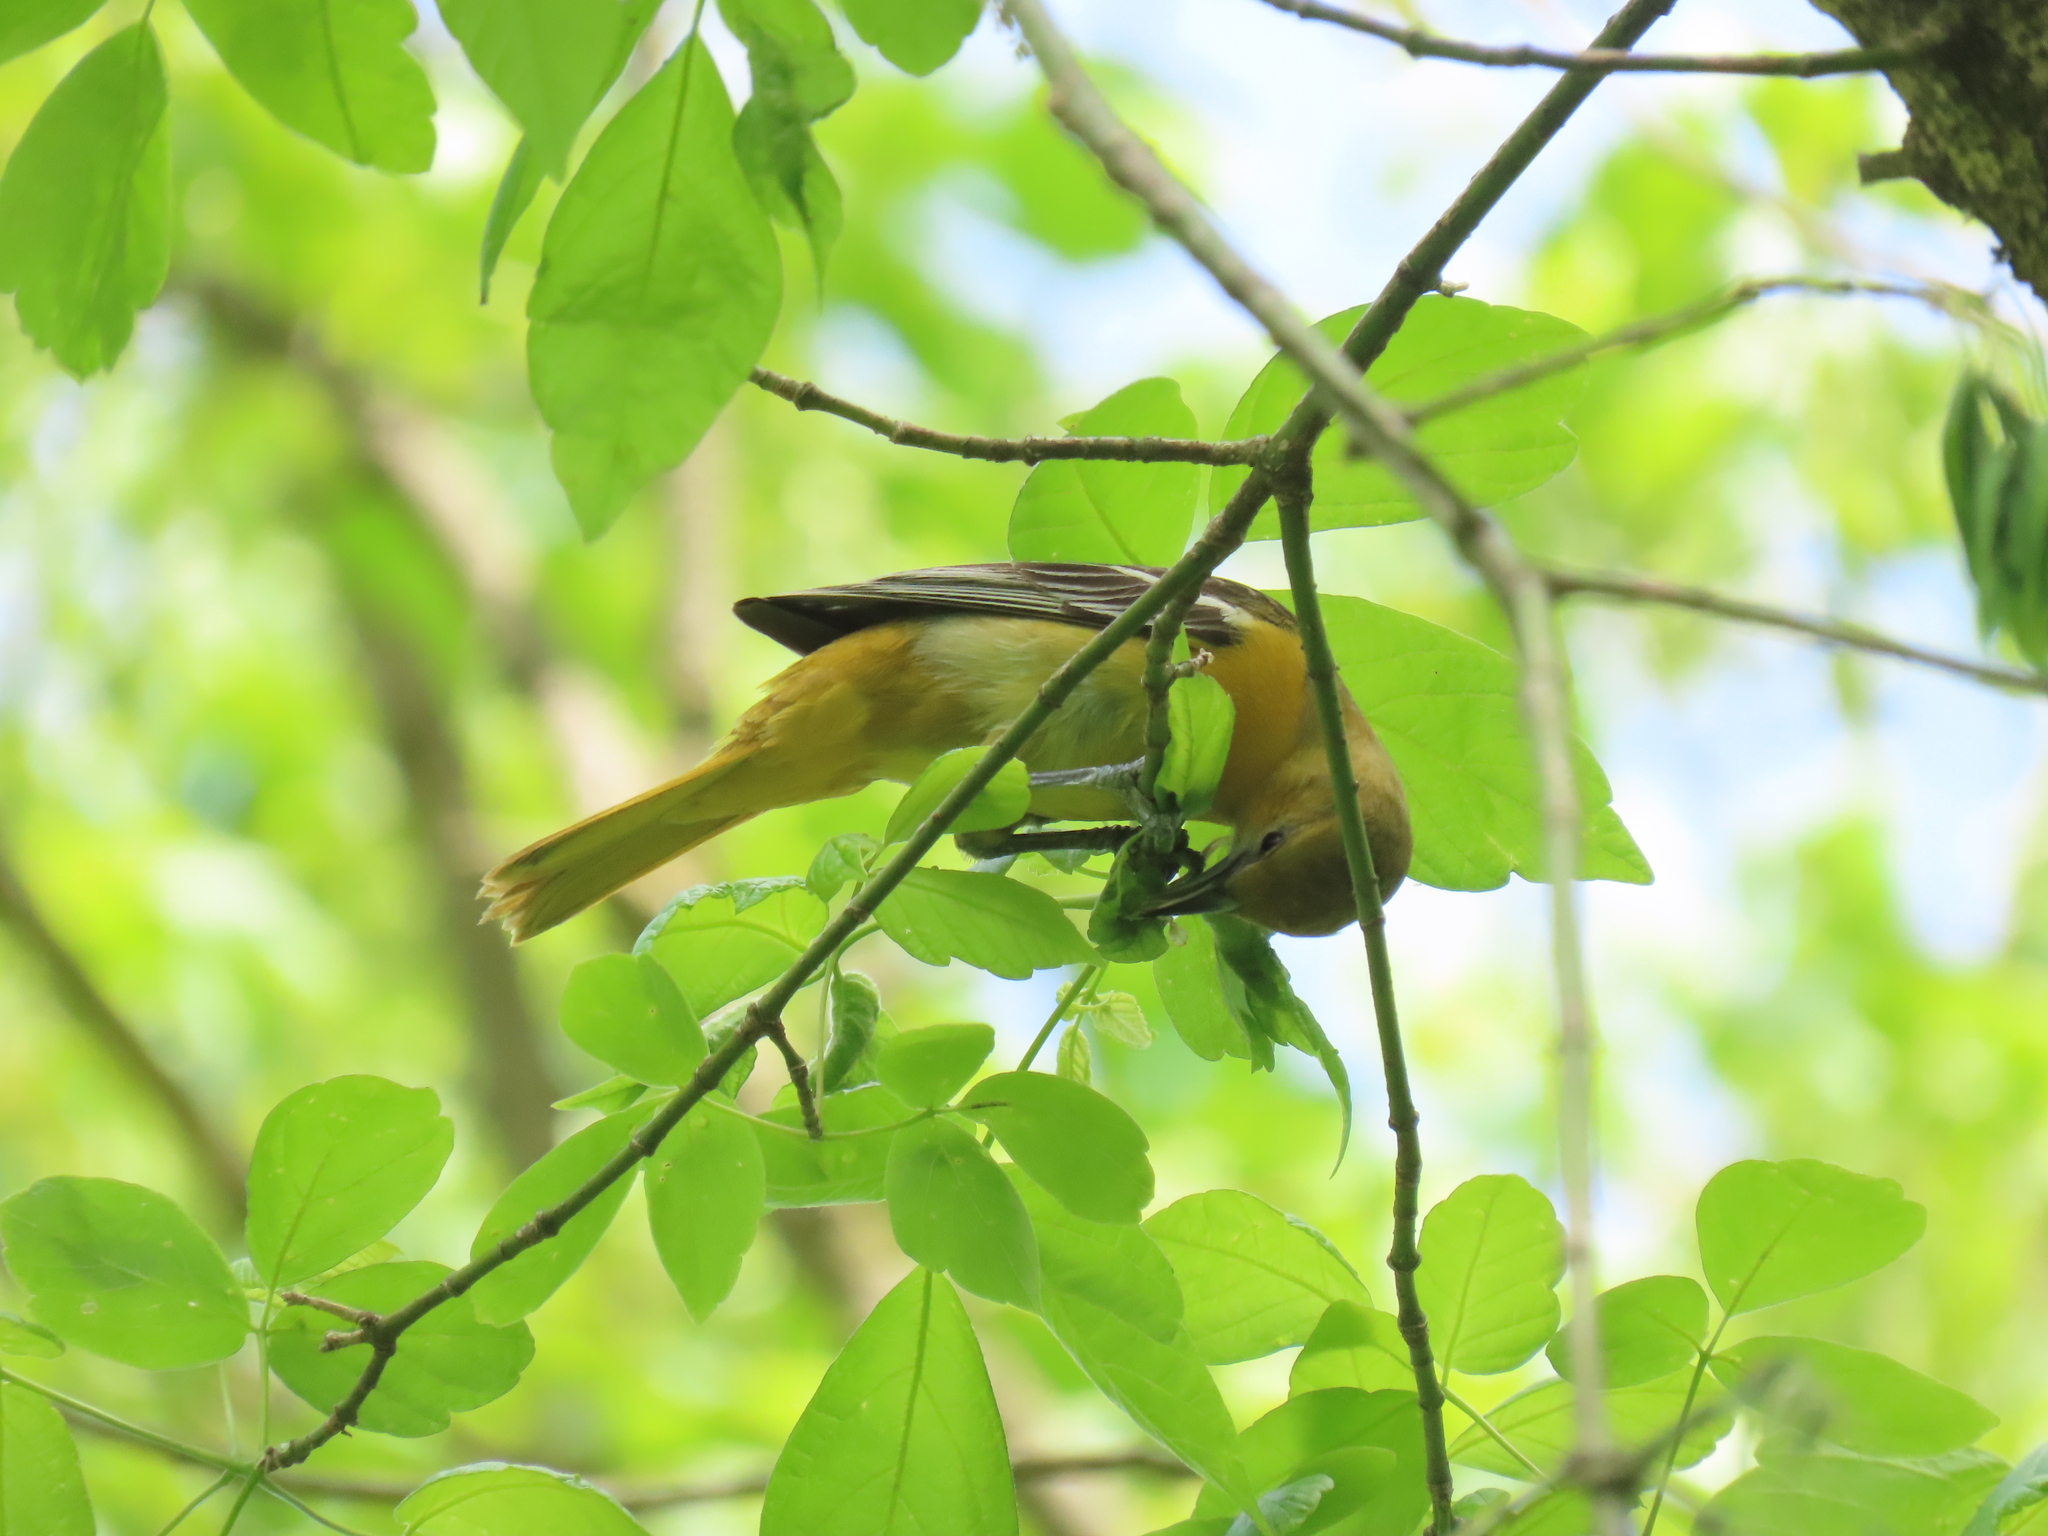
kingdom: Animalia
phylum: Chordata
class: Aves
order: Passeriformes
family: Icteridae
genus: Icterus
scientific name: Icterus galbula
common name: Baltimore oriole
